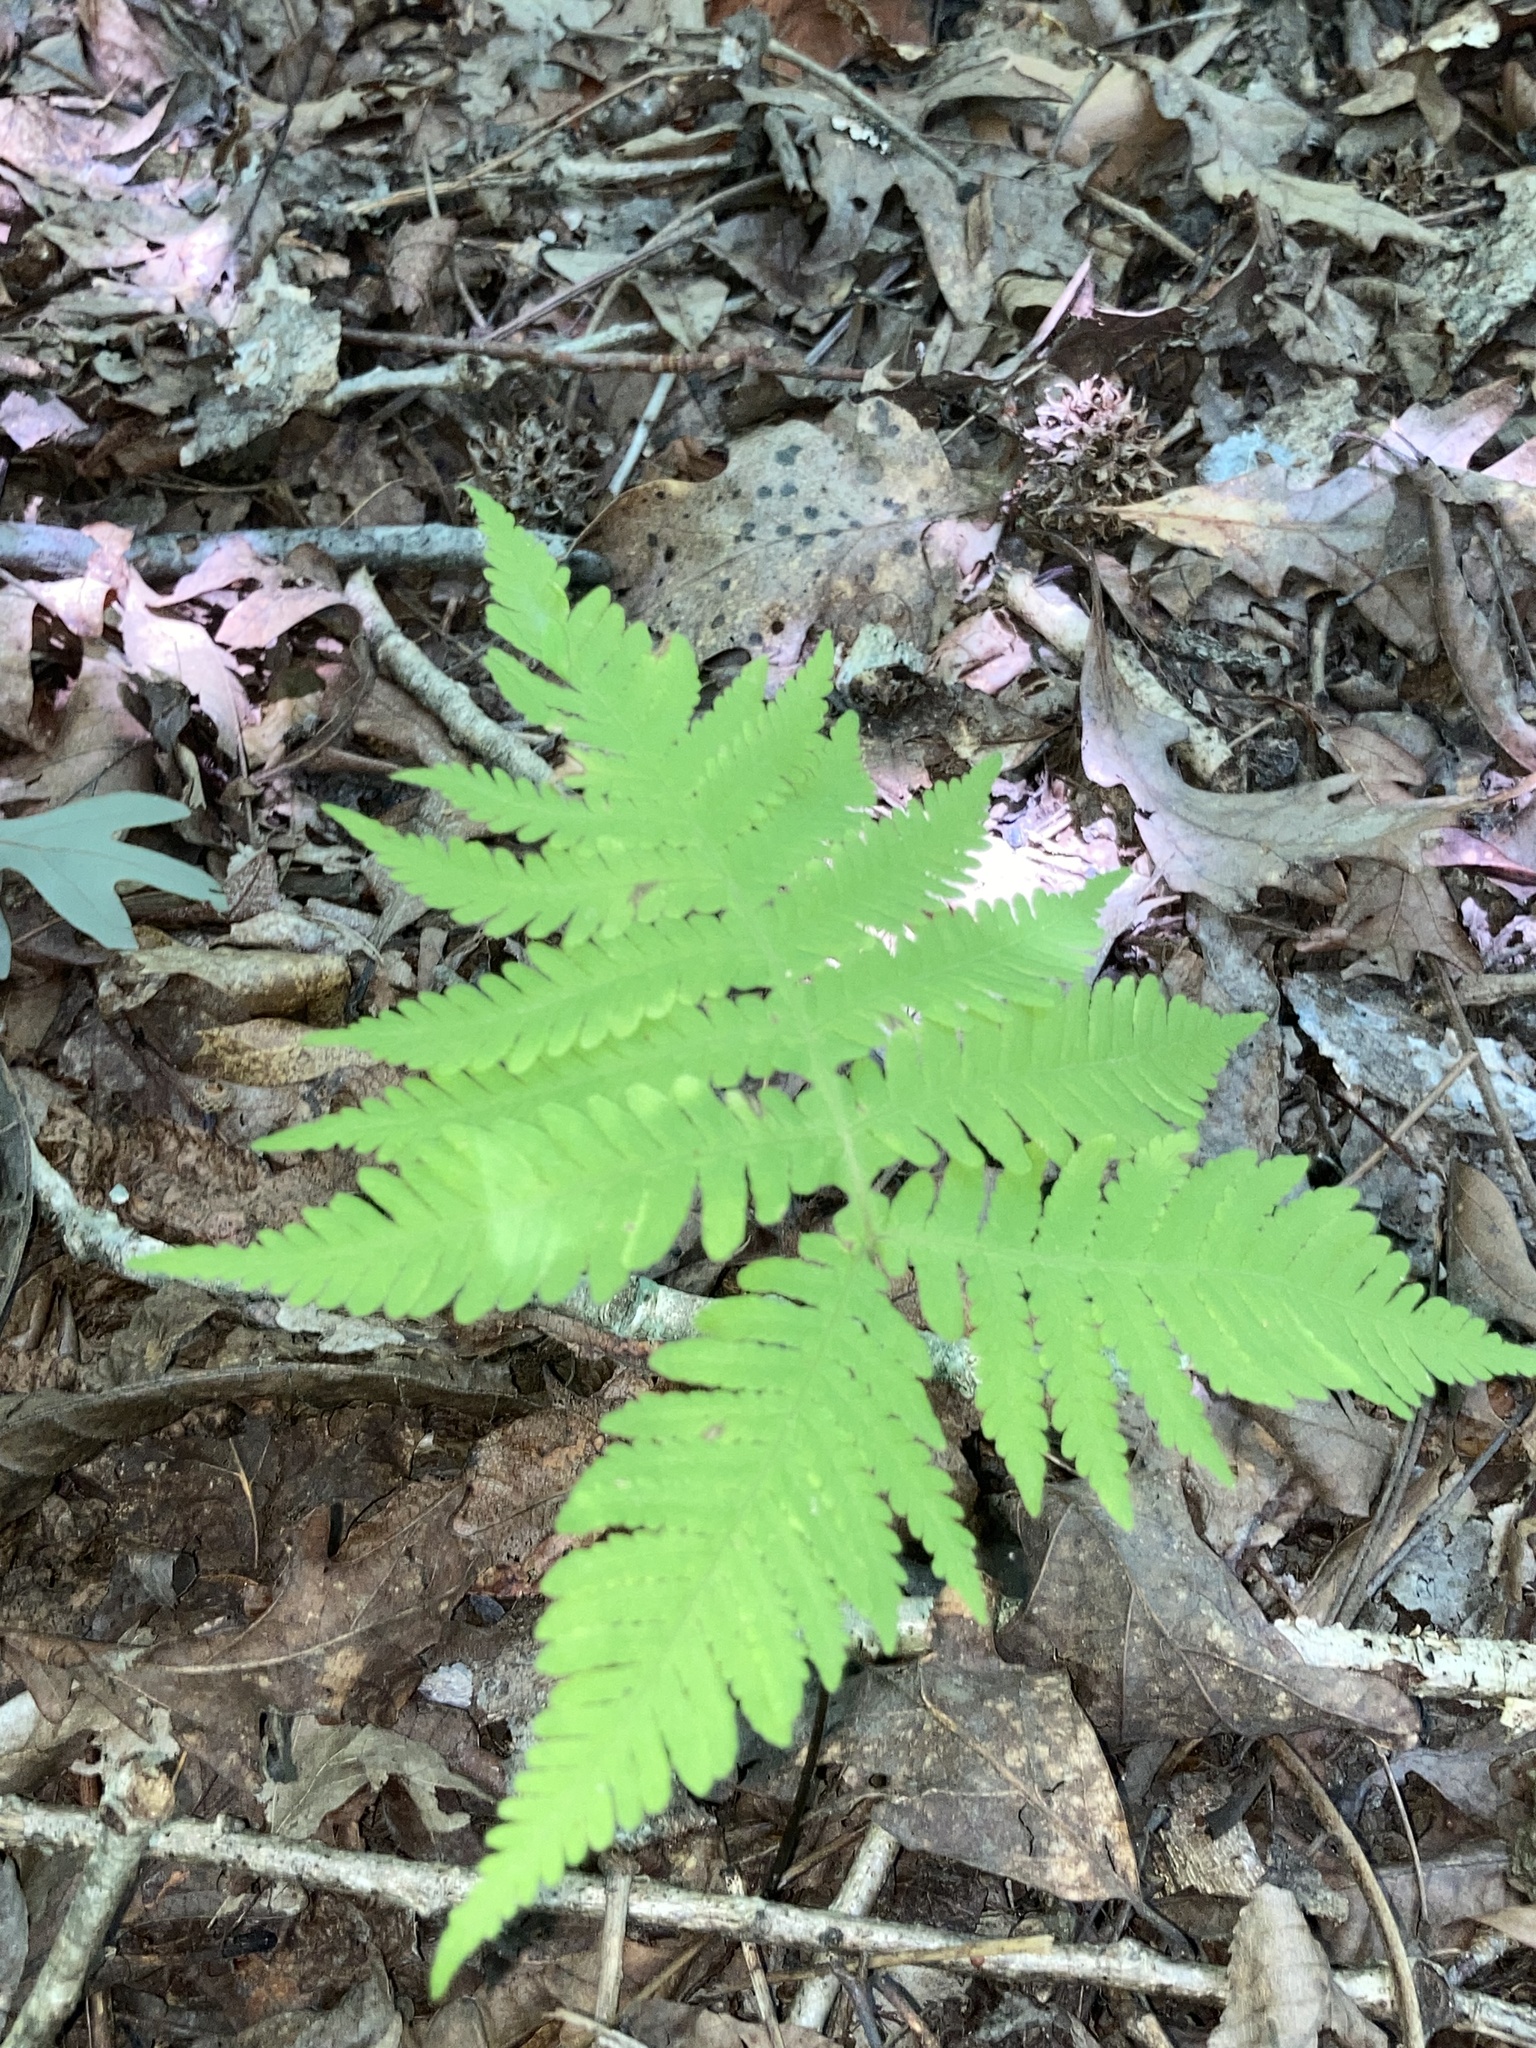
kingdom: Plantae
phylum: Tracheophyta
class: Polypodiopsida
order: Polypodiales
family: Thelypteridaceae
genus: Phegopteris
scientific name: Phegopteris hexagonoptera
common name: Broad beech fern
